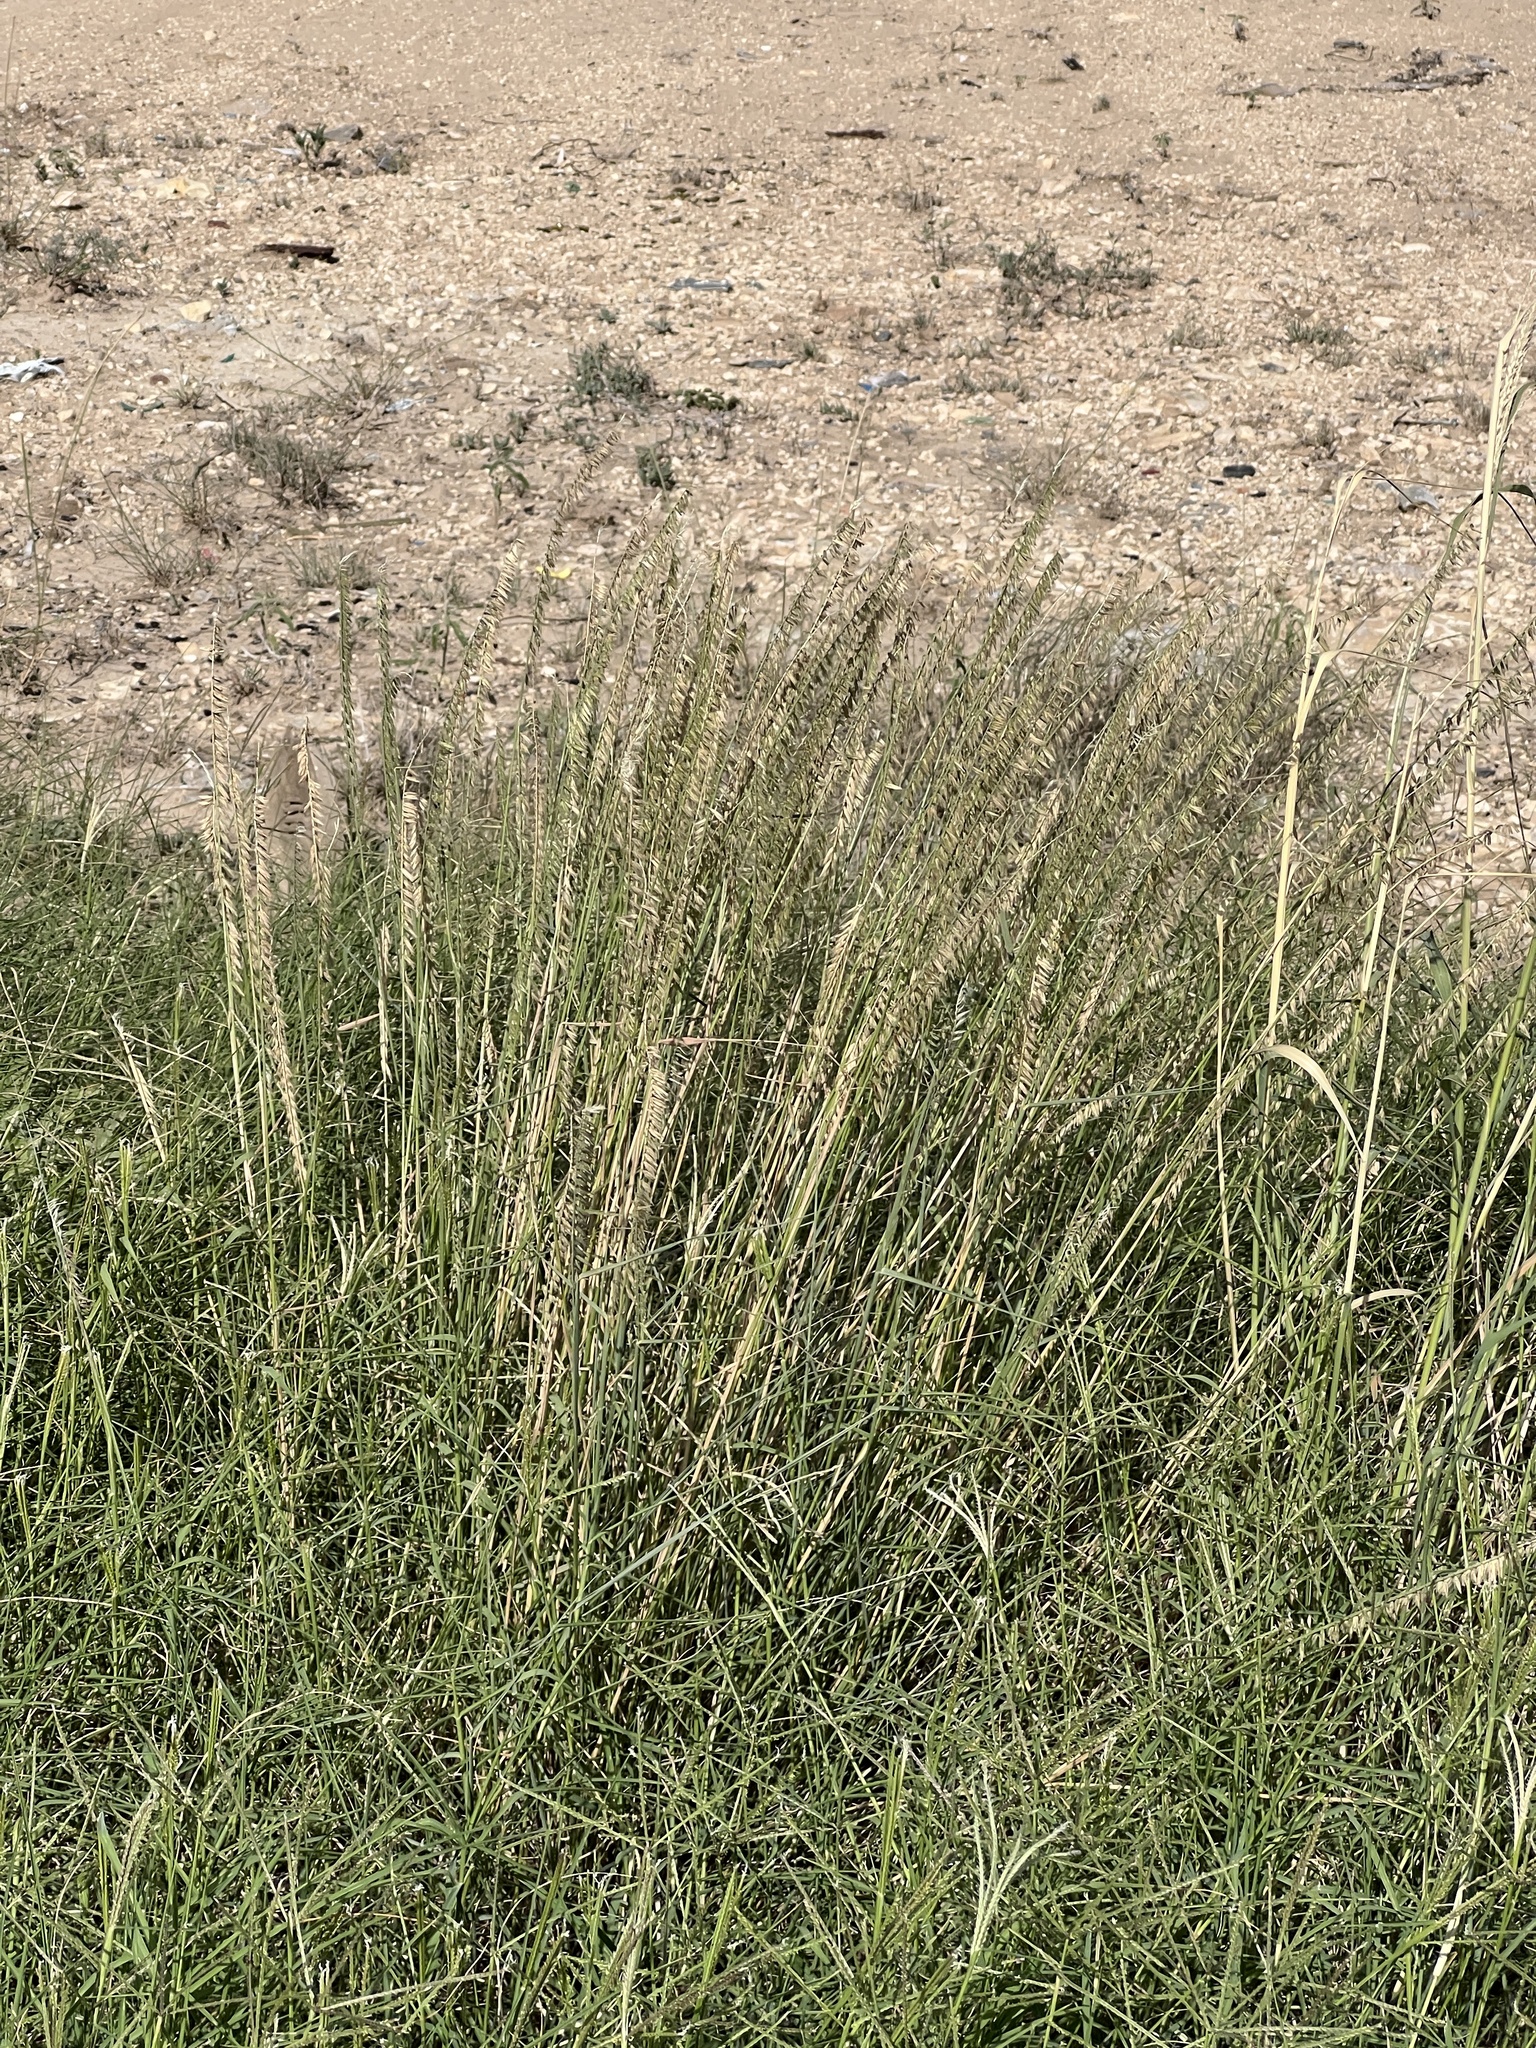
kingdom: Plantae
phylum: Tracheophyta
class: Liliopsida
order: Poales
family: Poaceae
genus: Bouteloua
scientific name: Bouteloua curtipendula
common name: Side-oats grama
